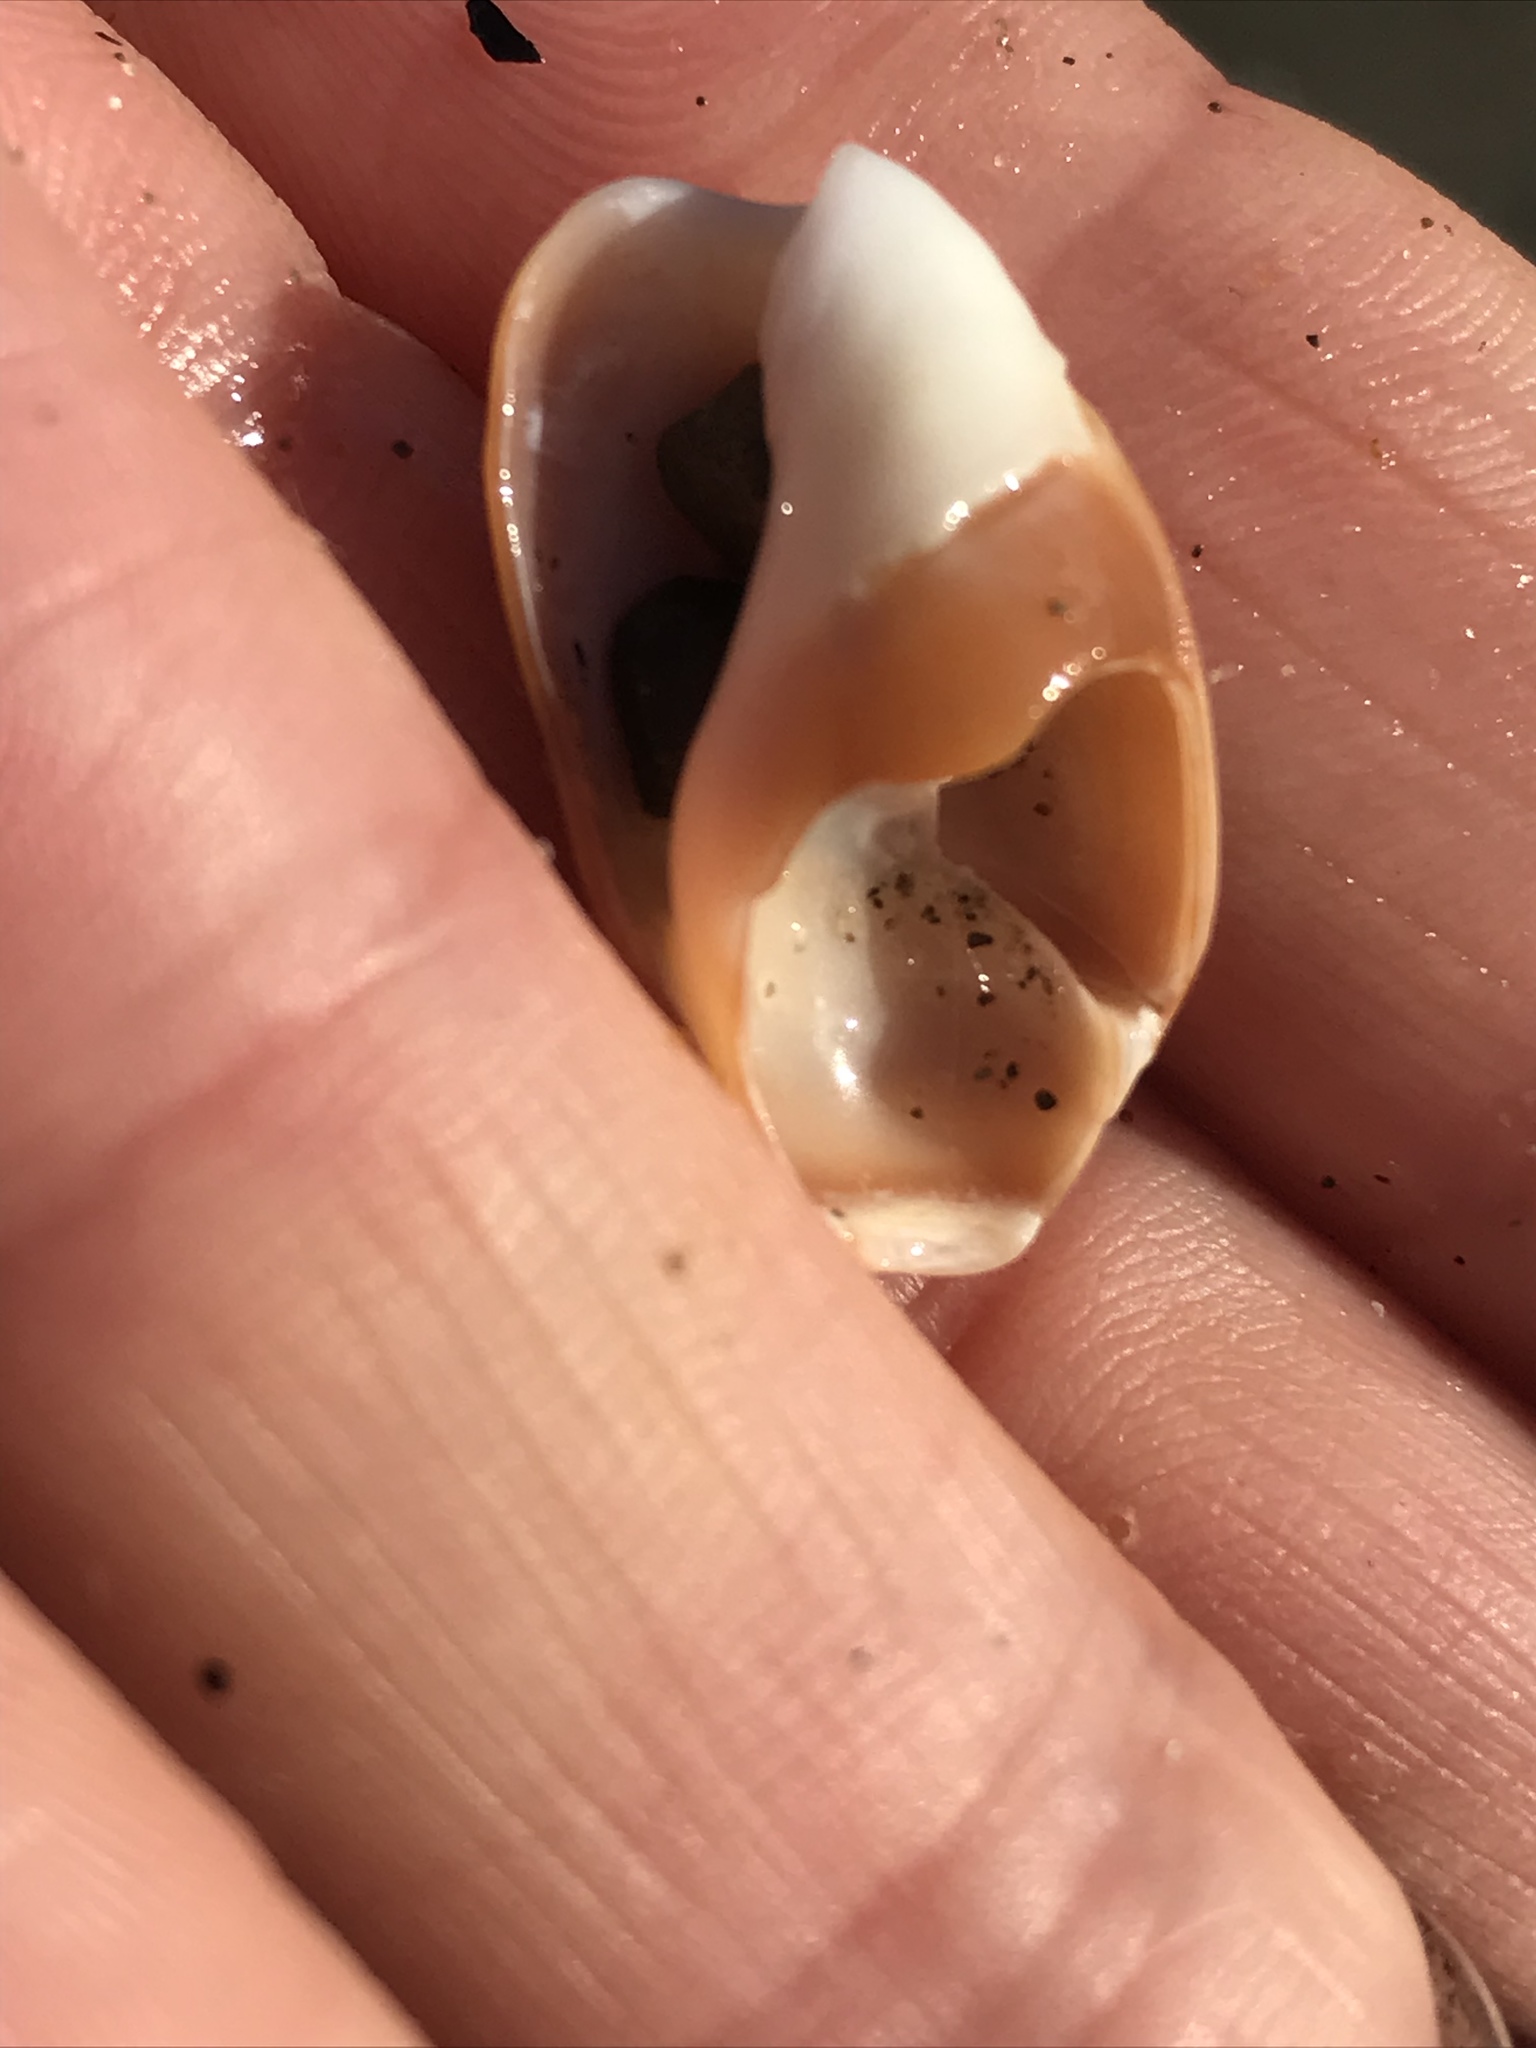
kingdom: Animalia
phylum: Mollusca
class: Gastropoda
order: Neogastropoda
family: Olividae
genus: Callianax
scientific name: Callianax biplicata
